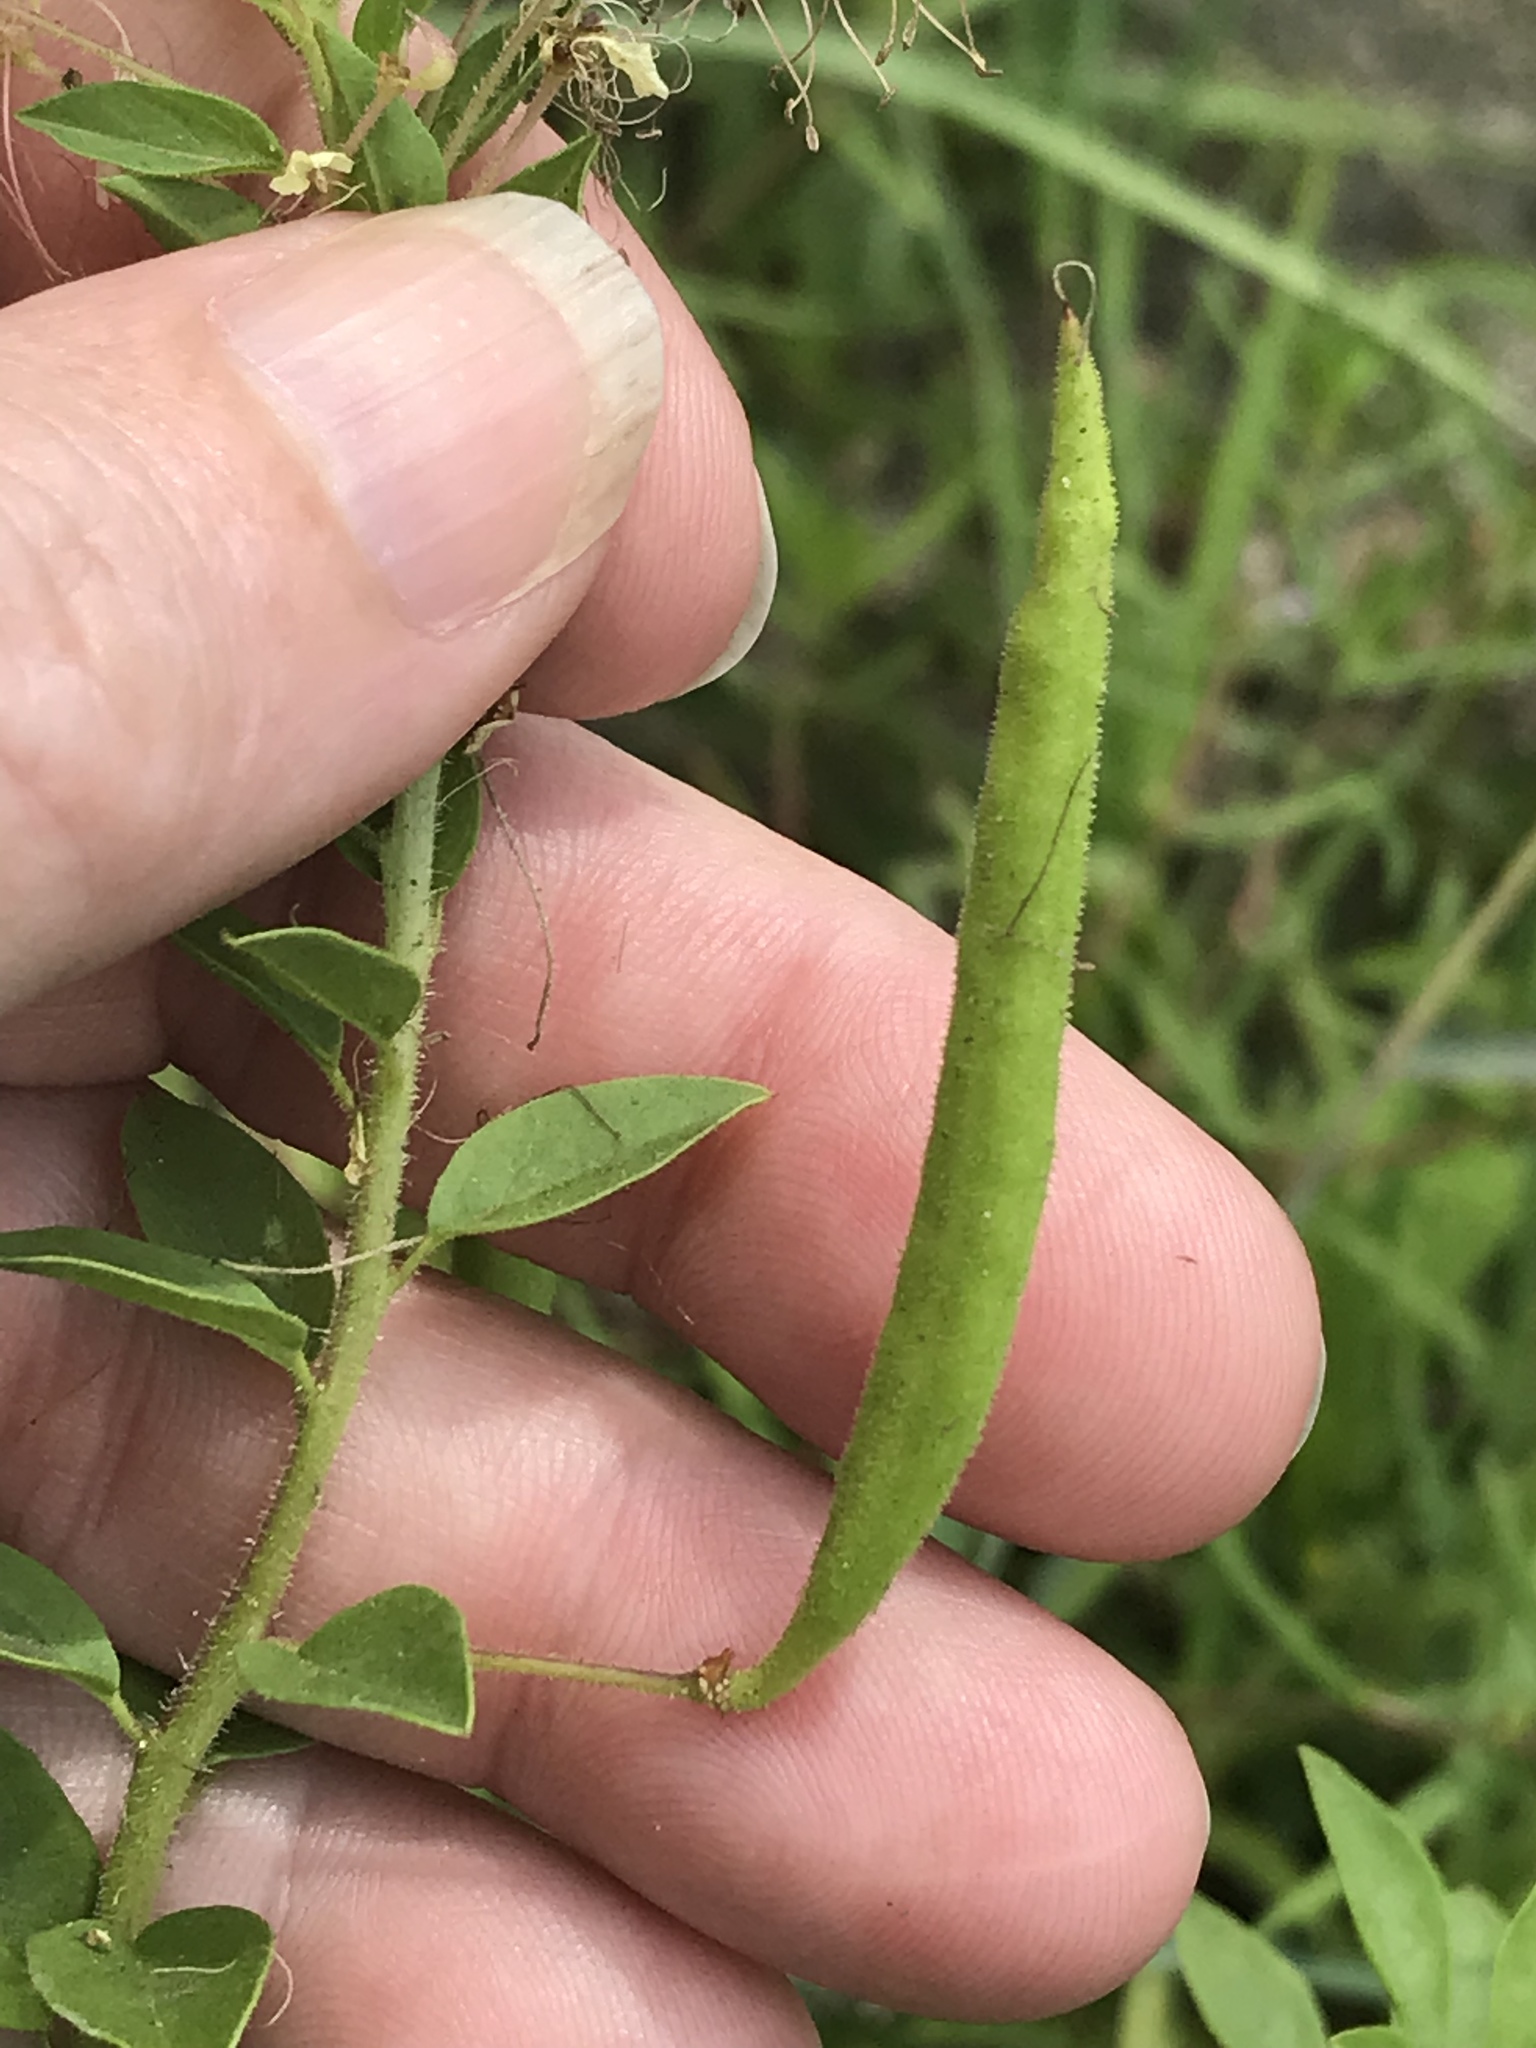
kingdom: Plantae
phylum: Tracheophyta
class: Magnoliopsida
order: Brassicales
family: Cleomaceae
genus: Polanisia
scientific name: Polanisia dodecandra
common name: Clammyweed
